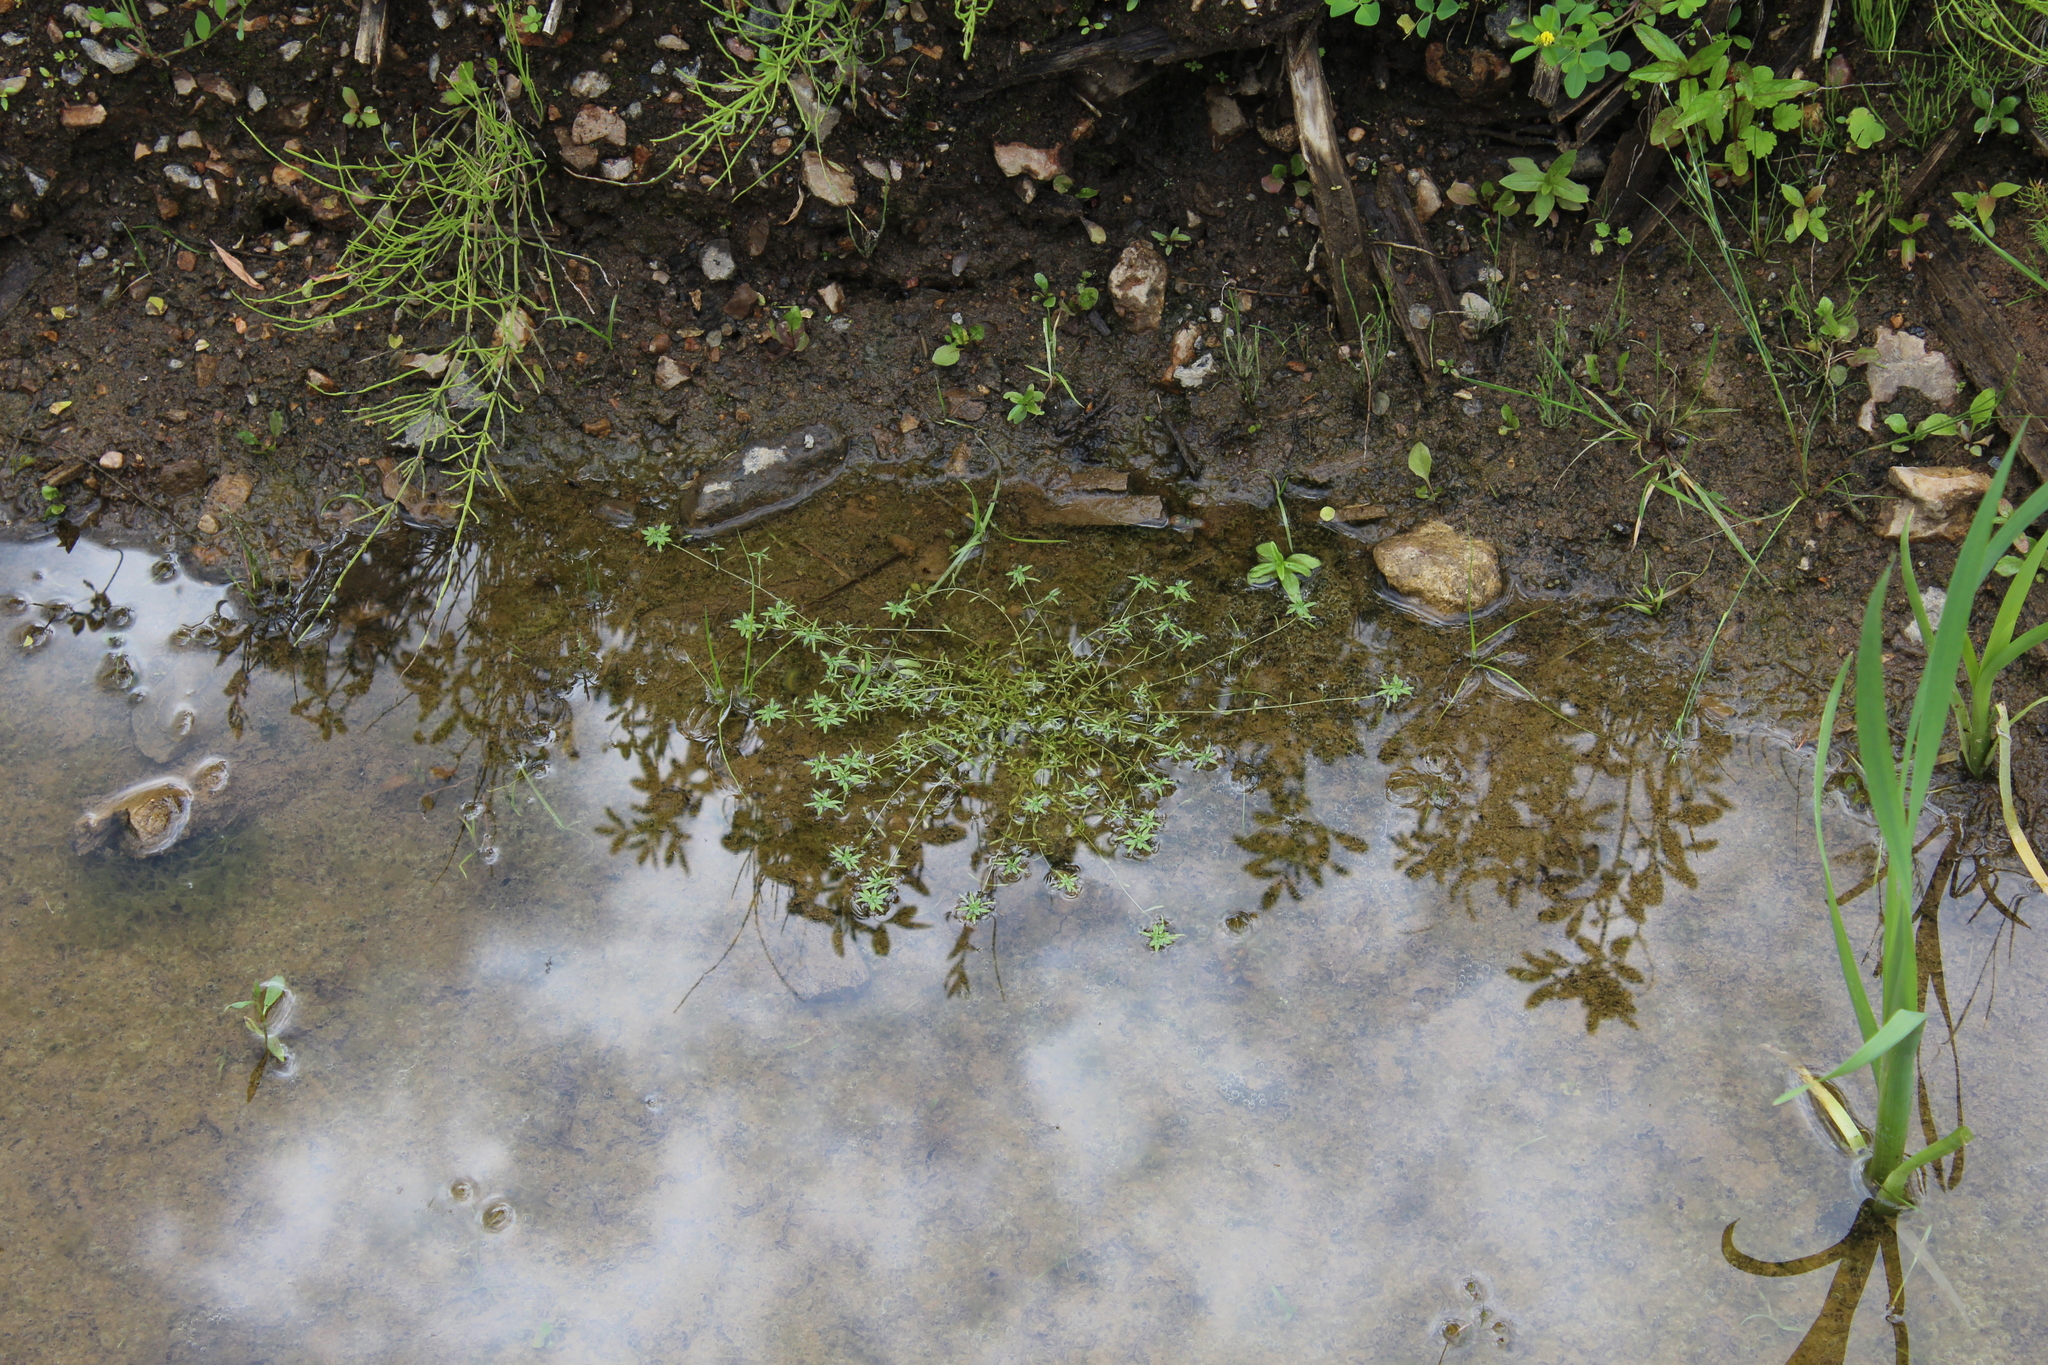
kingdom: Plantae
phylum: Tracheophyta
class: Magnoliopsida
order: Lamiales
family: Plantaginaceae
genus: Callitriche
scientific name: Callitriche
